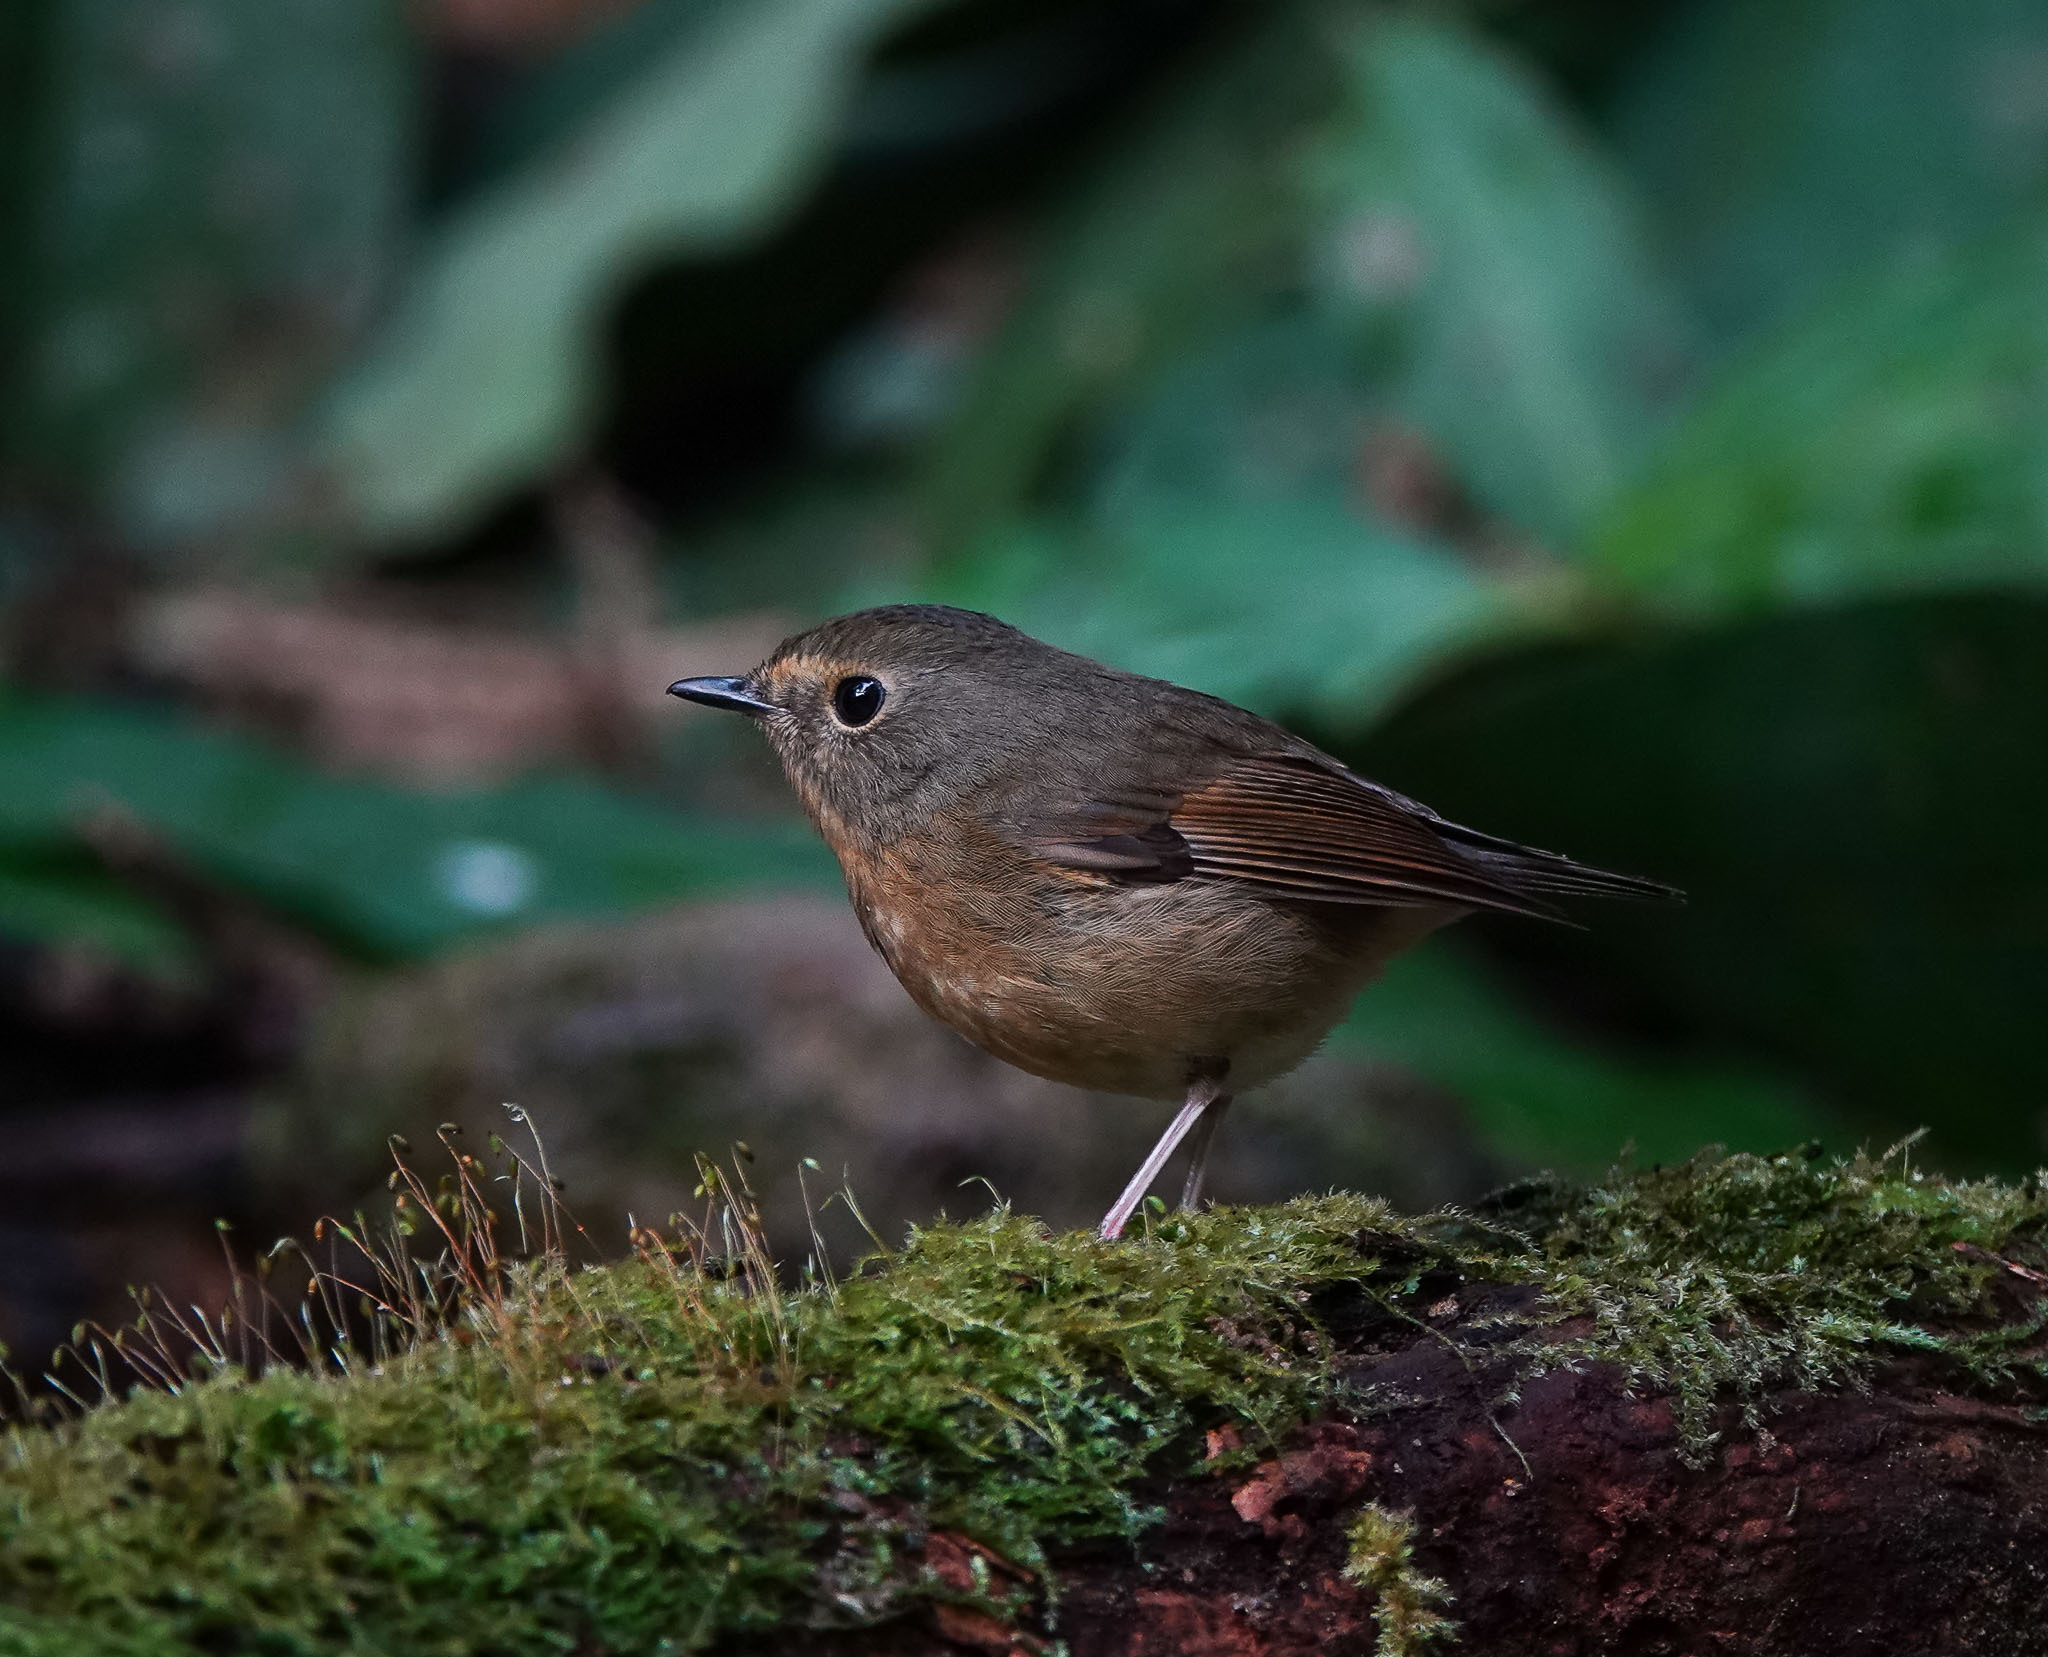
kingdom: Animalia
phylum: Chordata
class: Aves
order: Passeriformes
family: Muscicapidae
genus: Ficedula
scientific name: Ficedula hyperythra
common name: Snowy-browed flycatcher
